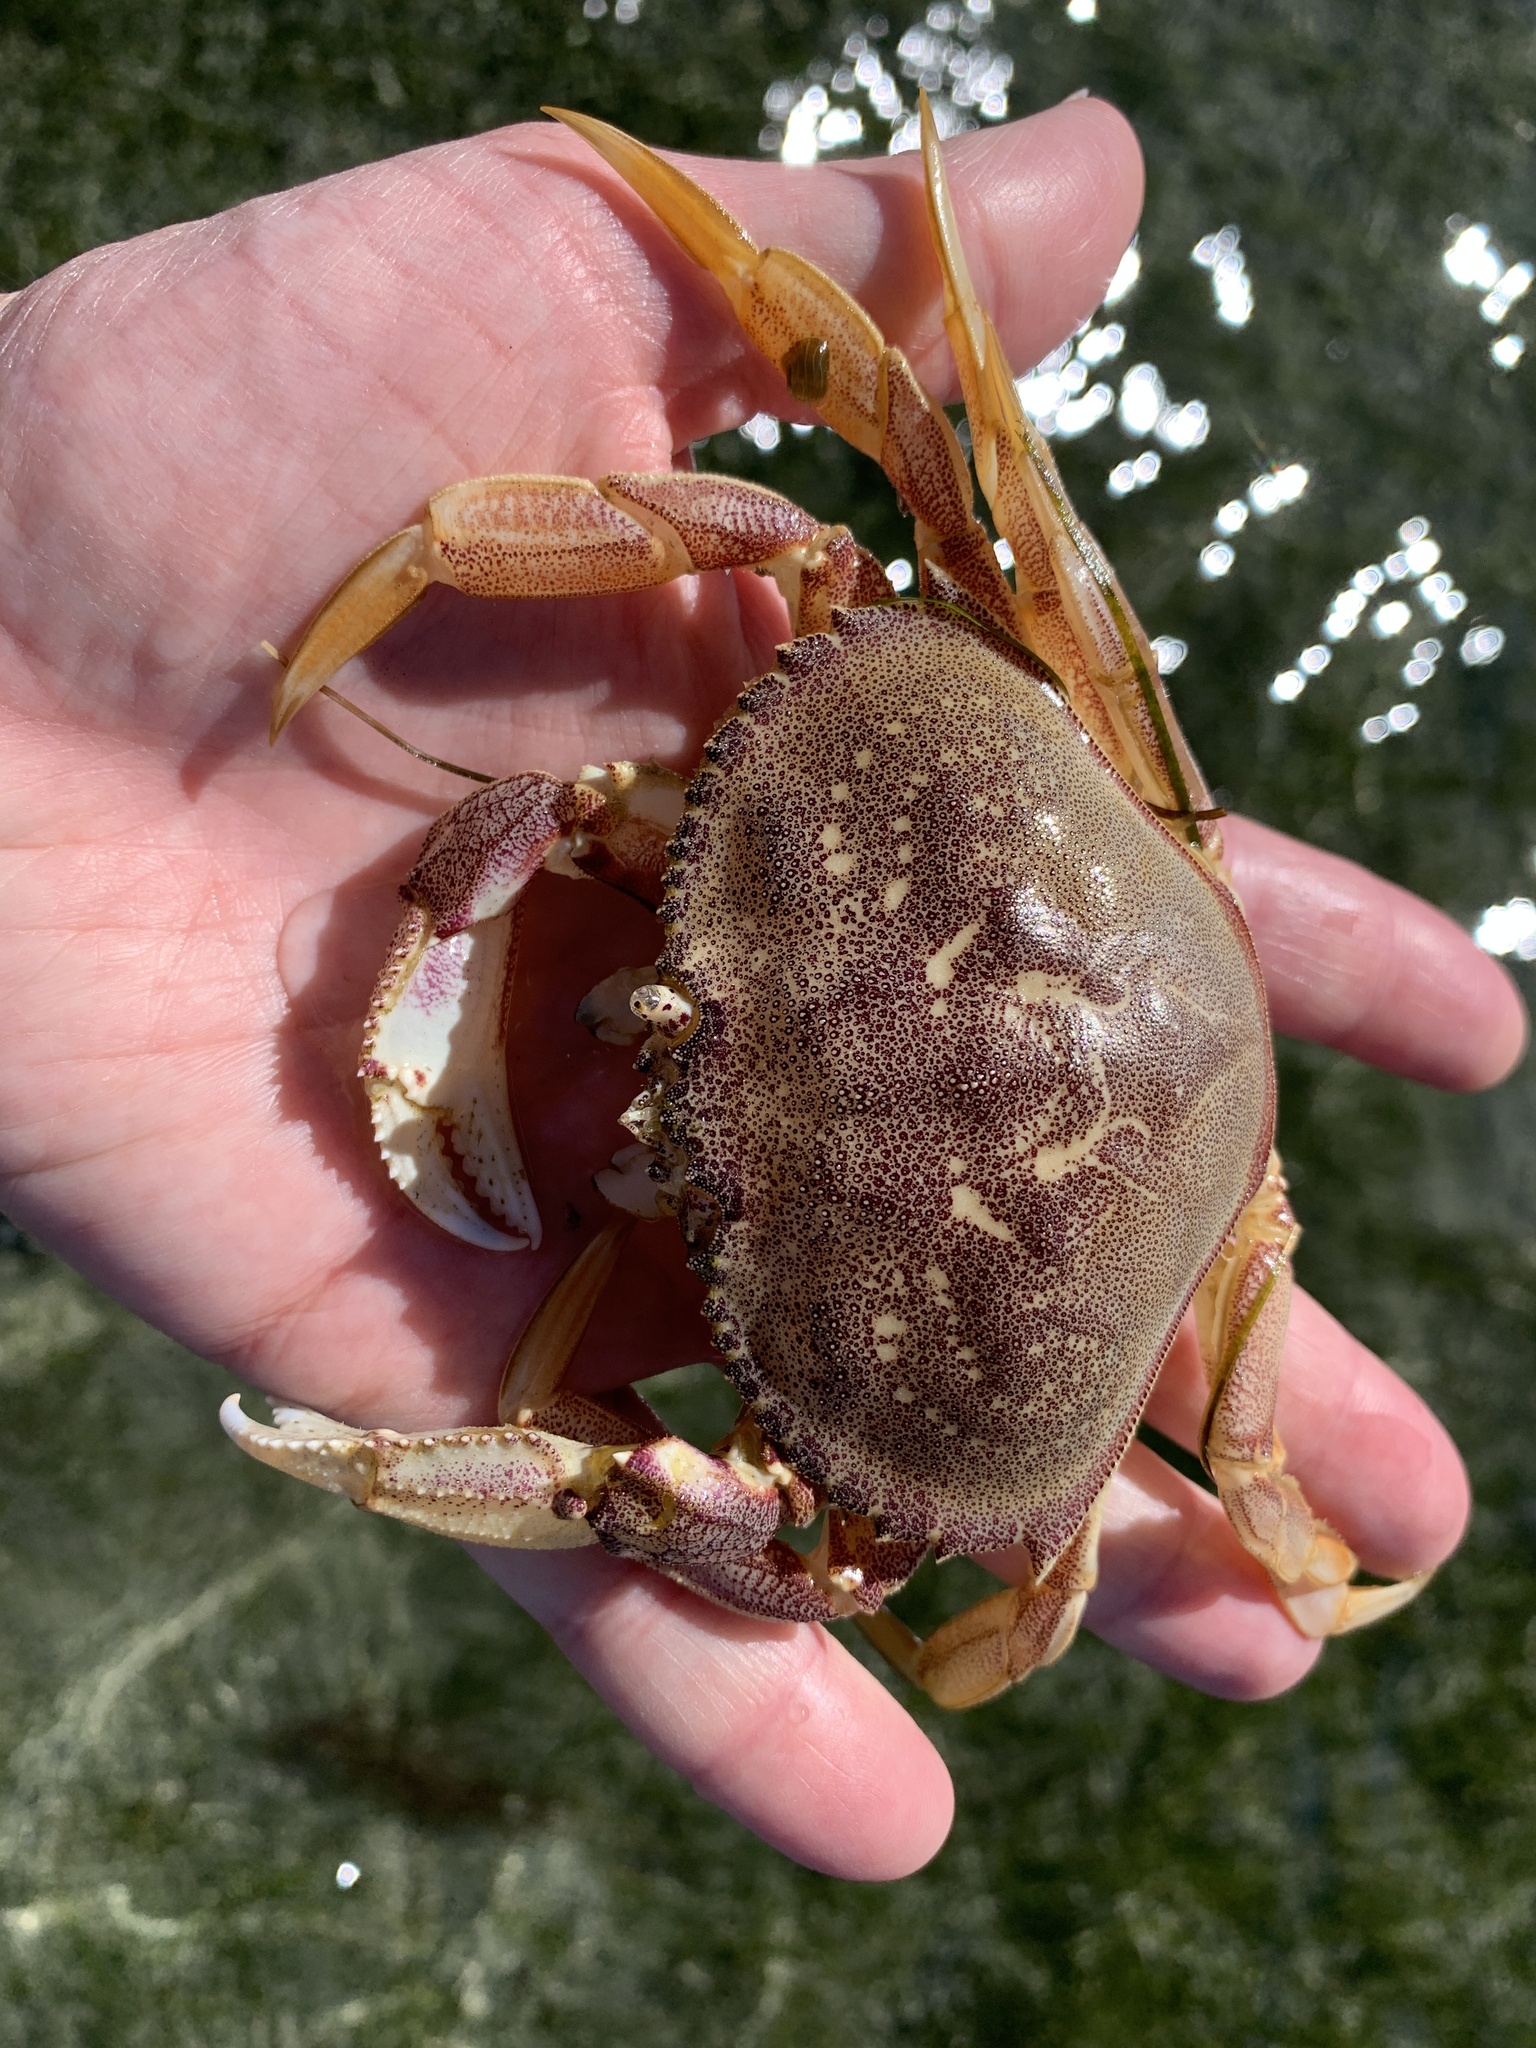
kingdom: Animalia
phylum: Arthropoda
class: Malacostraca
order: Decapoda
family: Cancridae
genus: Metacarcinus
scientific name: Metacarcinus magister
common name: Californian crab
